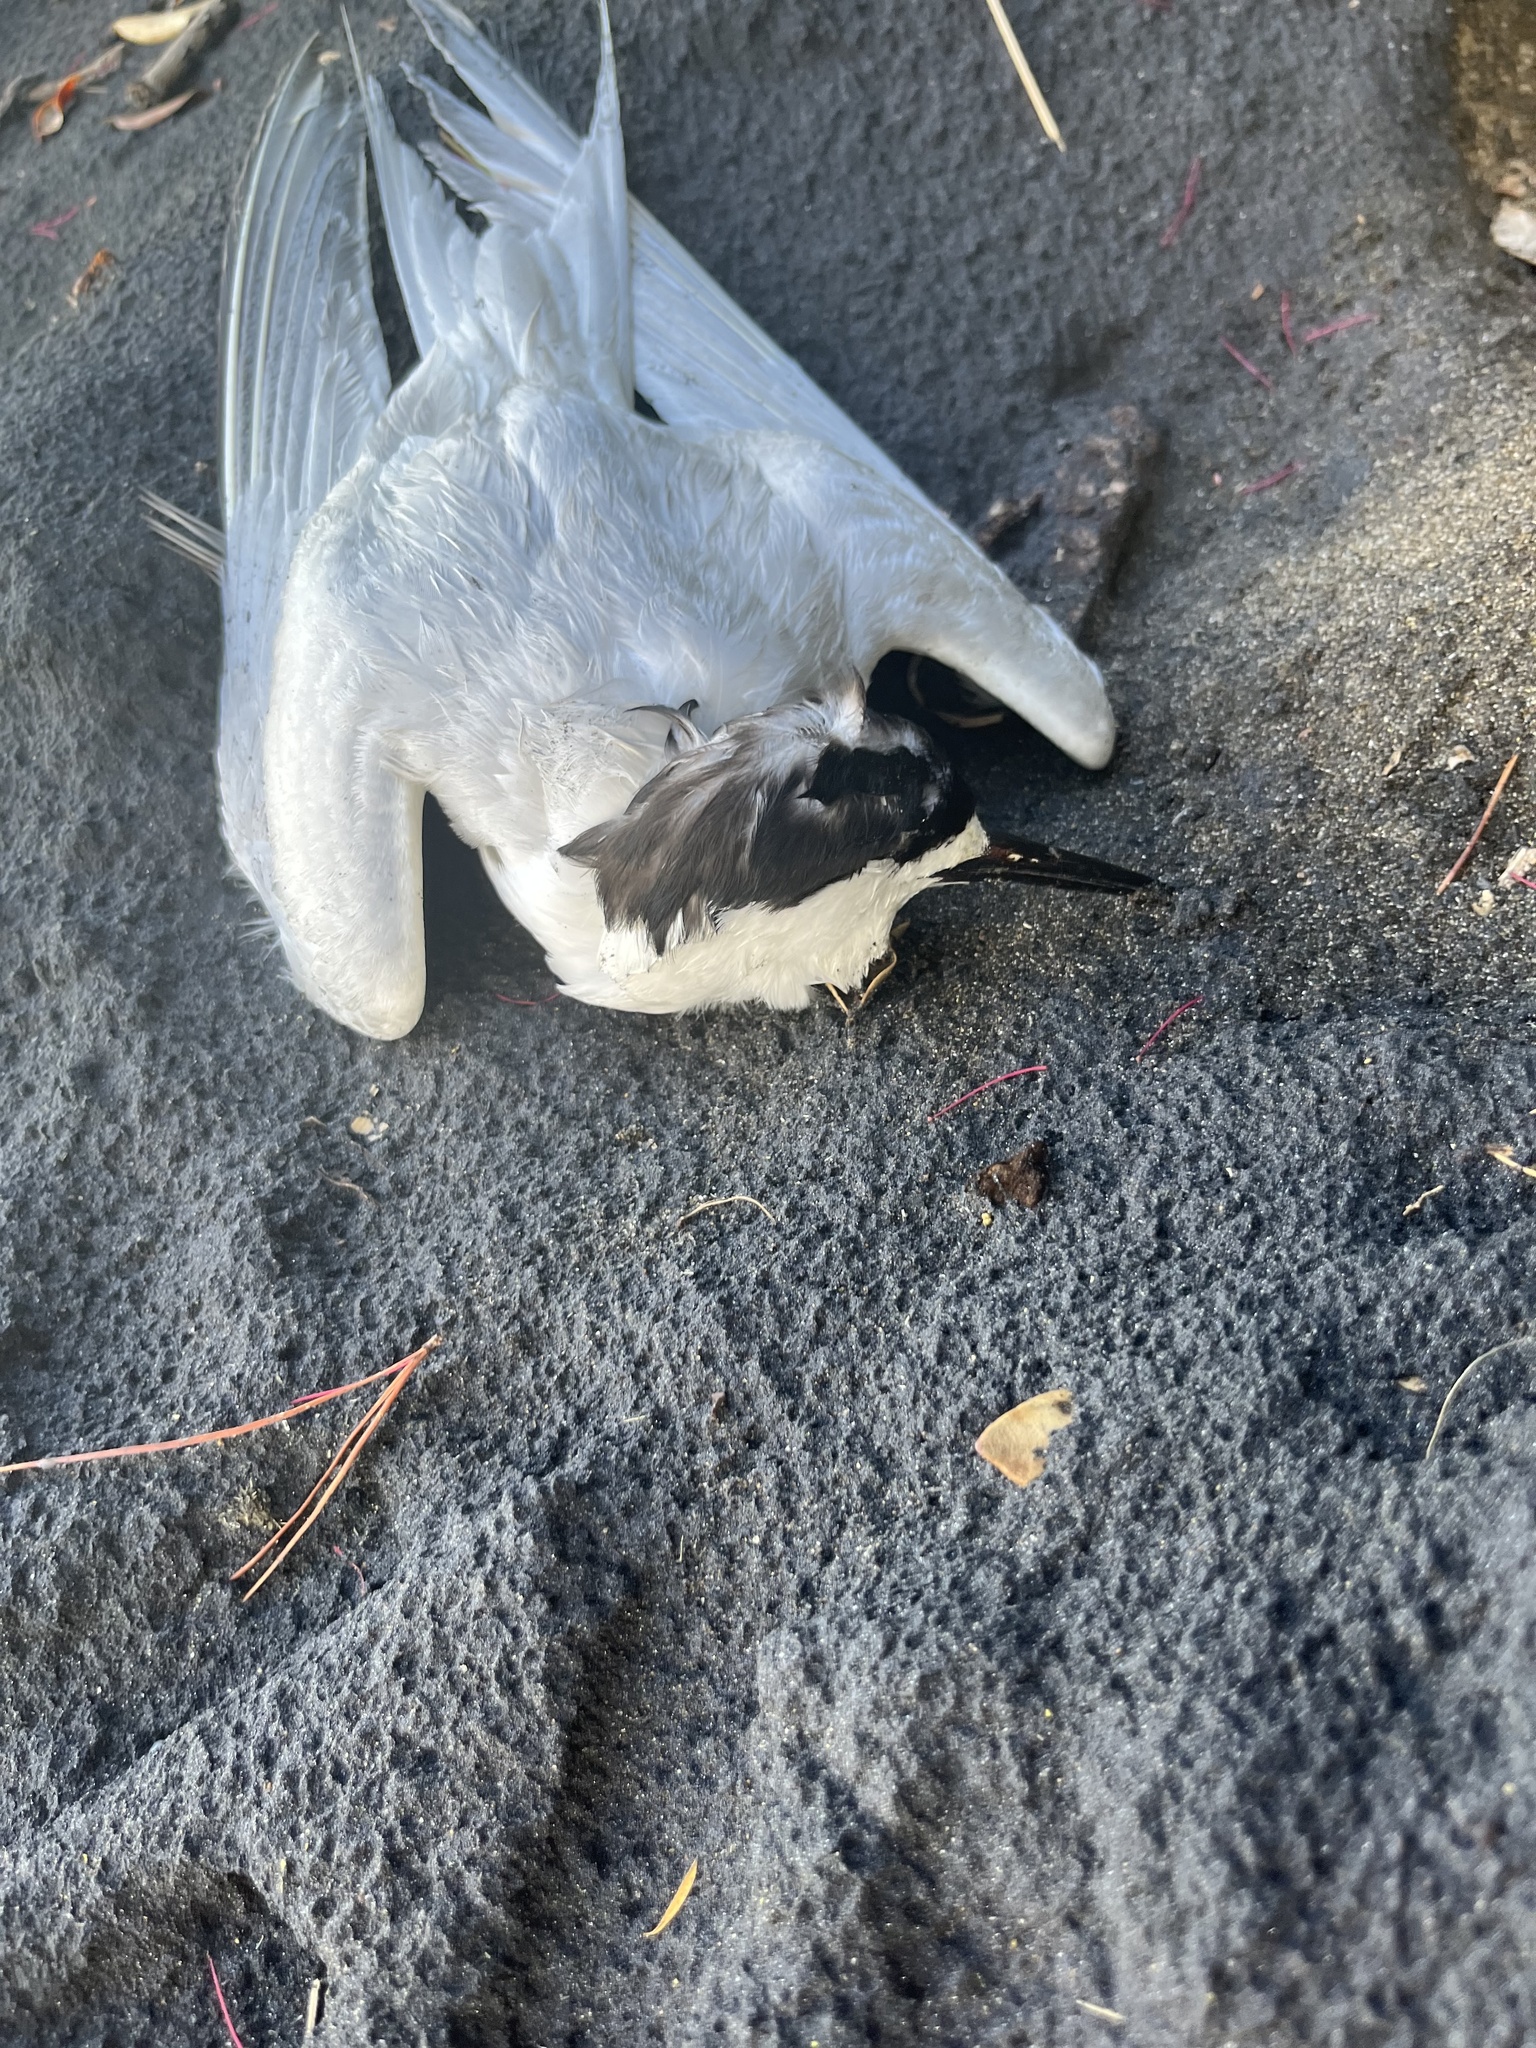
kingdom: Animalia
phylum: Chordata
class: Aves
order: Charadriiformes
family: Laridae
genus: Sterna
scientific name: Sterna striata
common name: White-fronted tern
